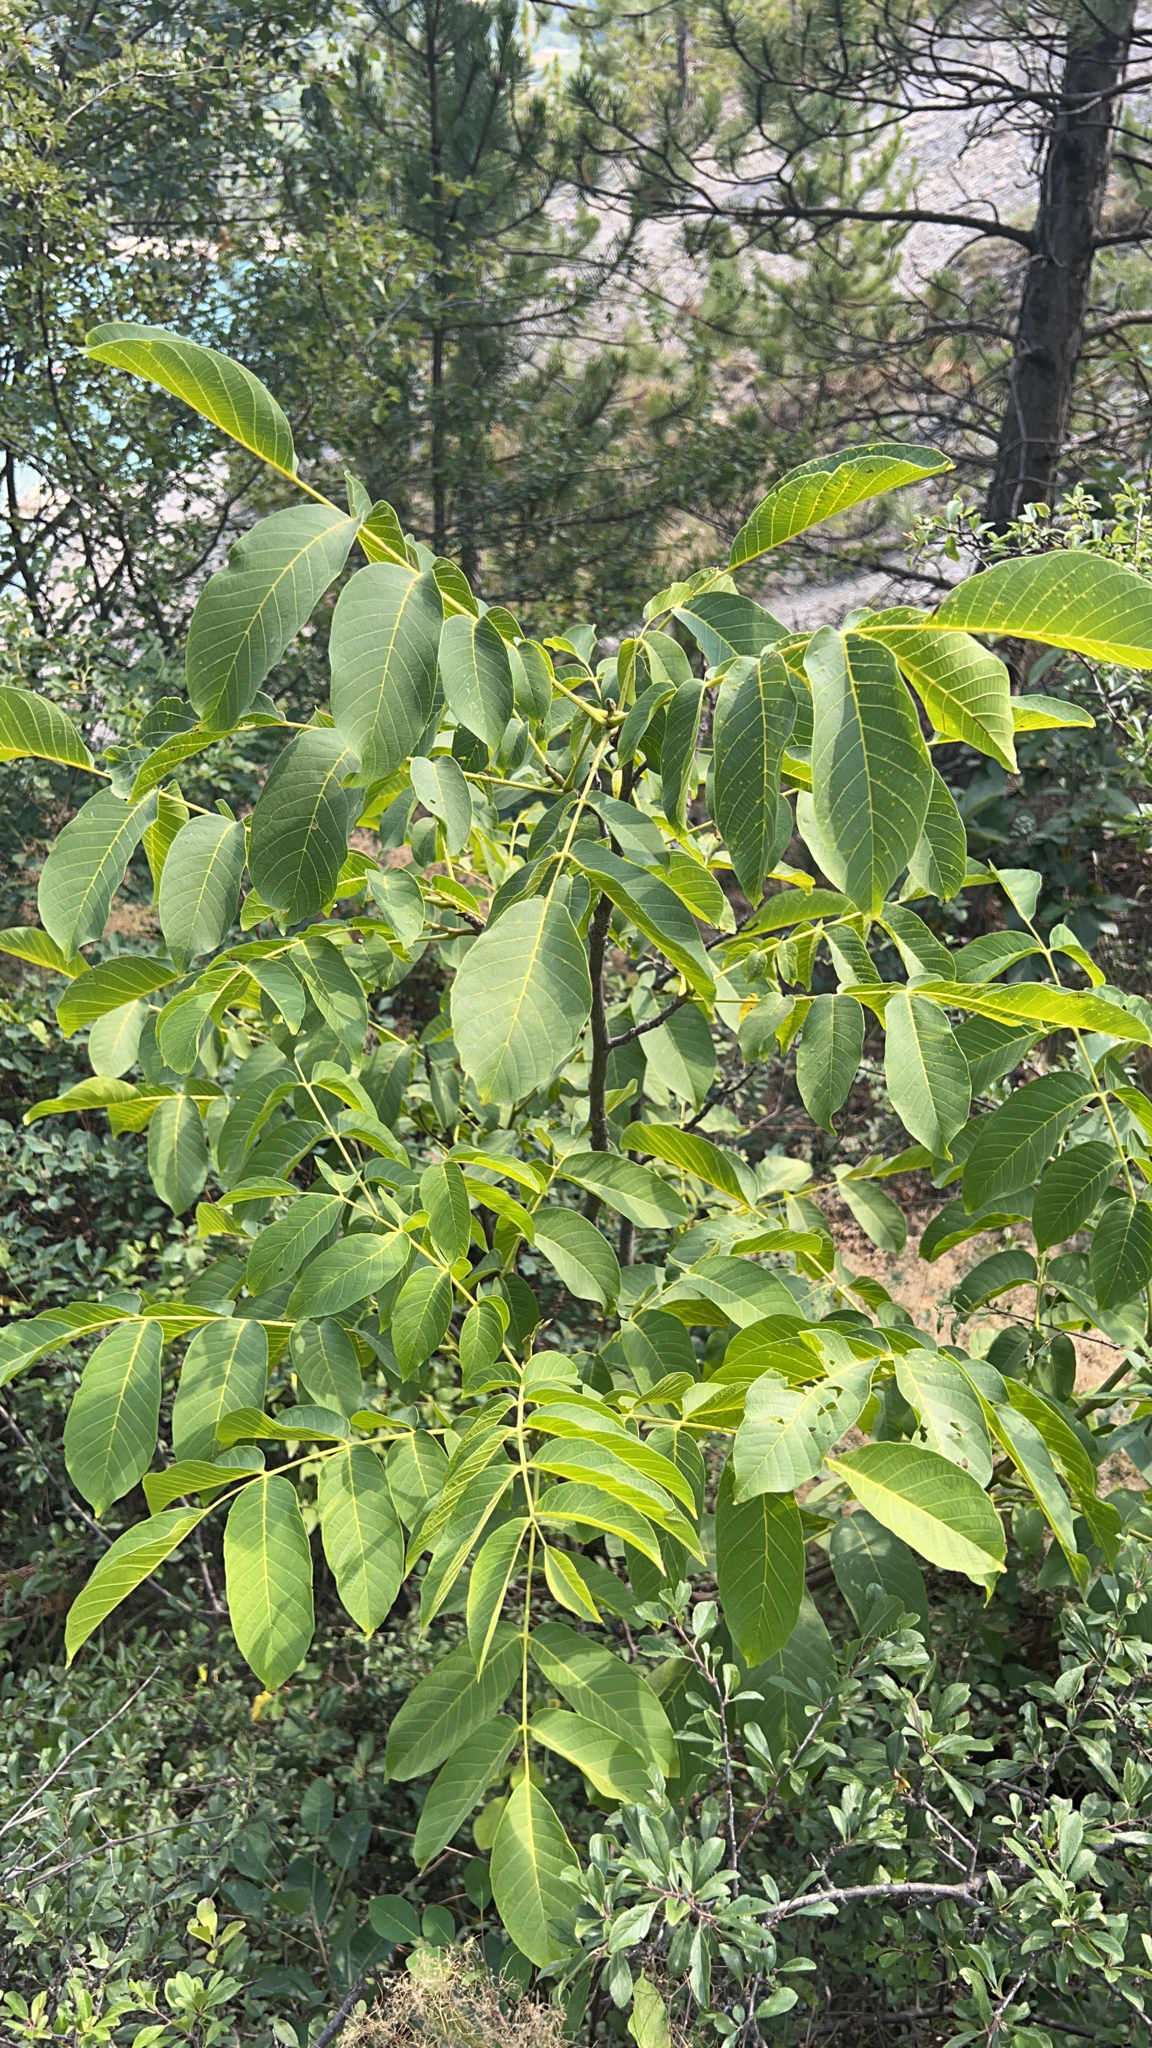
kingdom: Plantae
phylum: Tracheophyta
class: Magnoliopsida
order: Fagales
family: Juglandaceae
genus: Juglans
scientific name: Juglans regia
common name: Walnut
